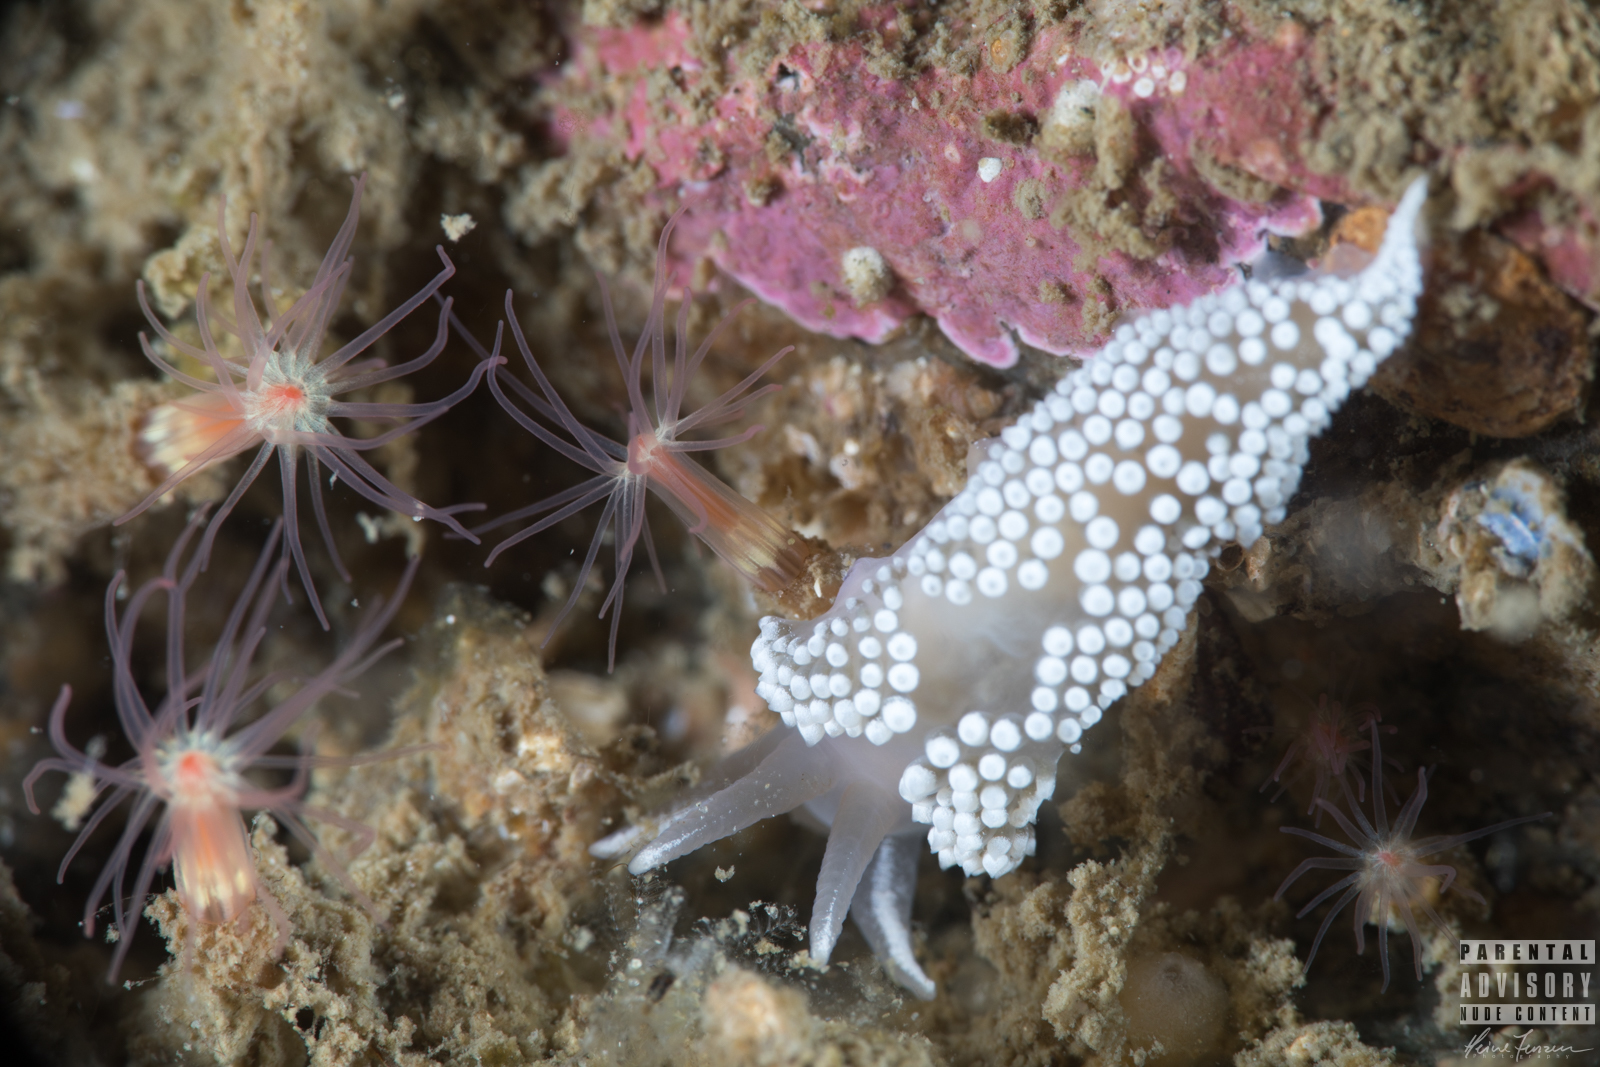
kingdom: Animalia
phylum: Mollusca
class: Gastropoda
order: Nudibranchia
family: Coryphellidae
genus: Coryphella
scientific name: Coryphella verrucosa
